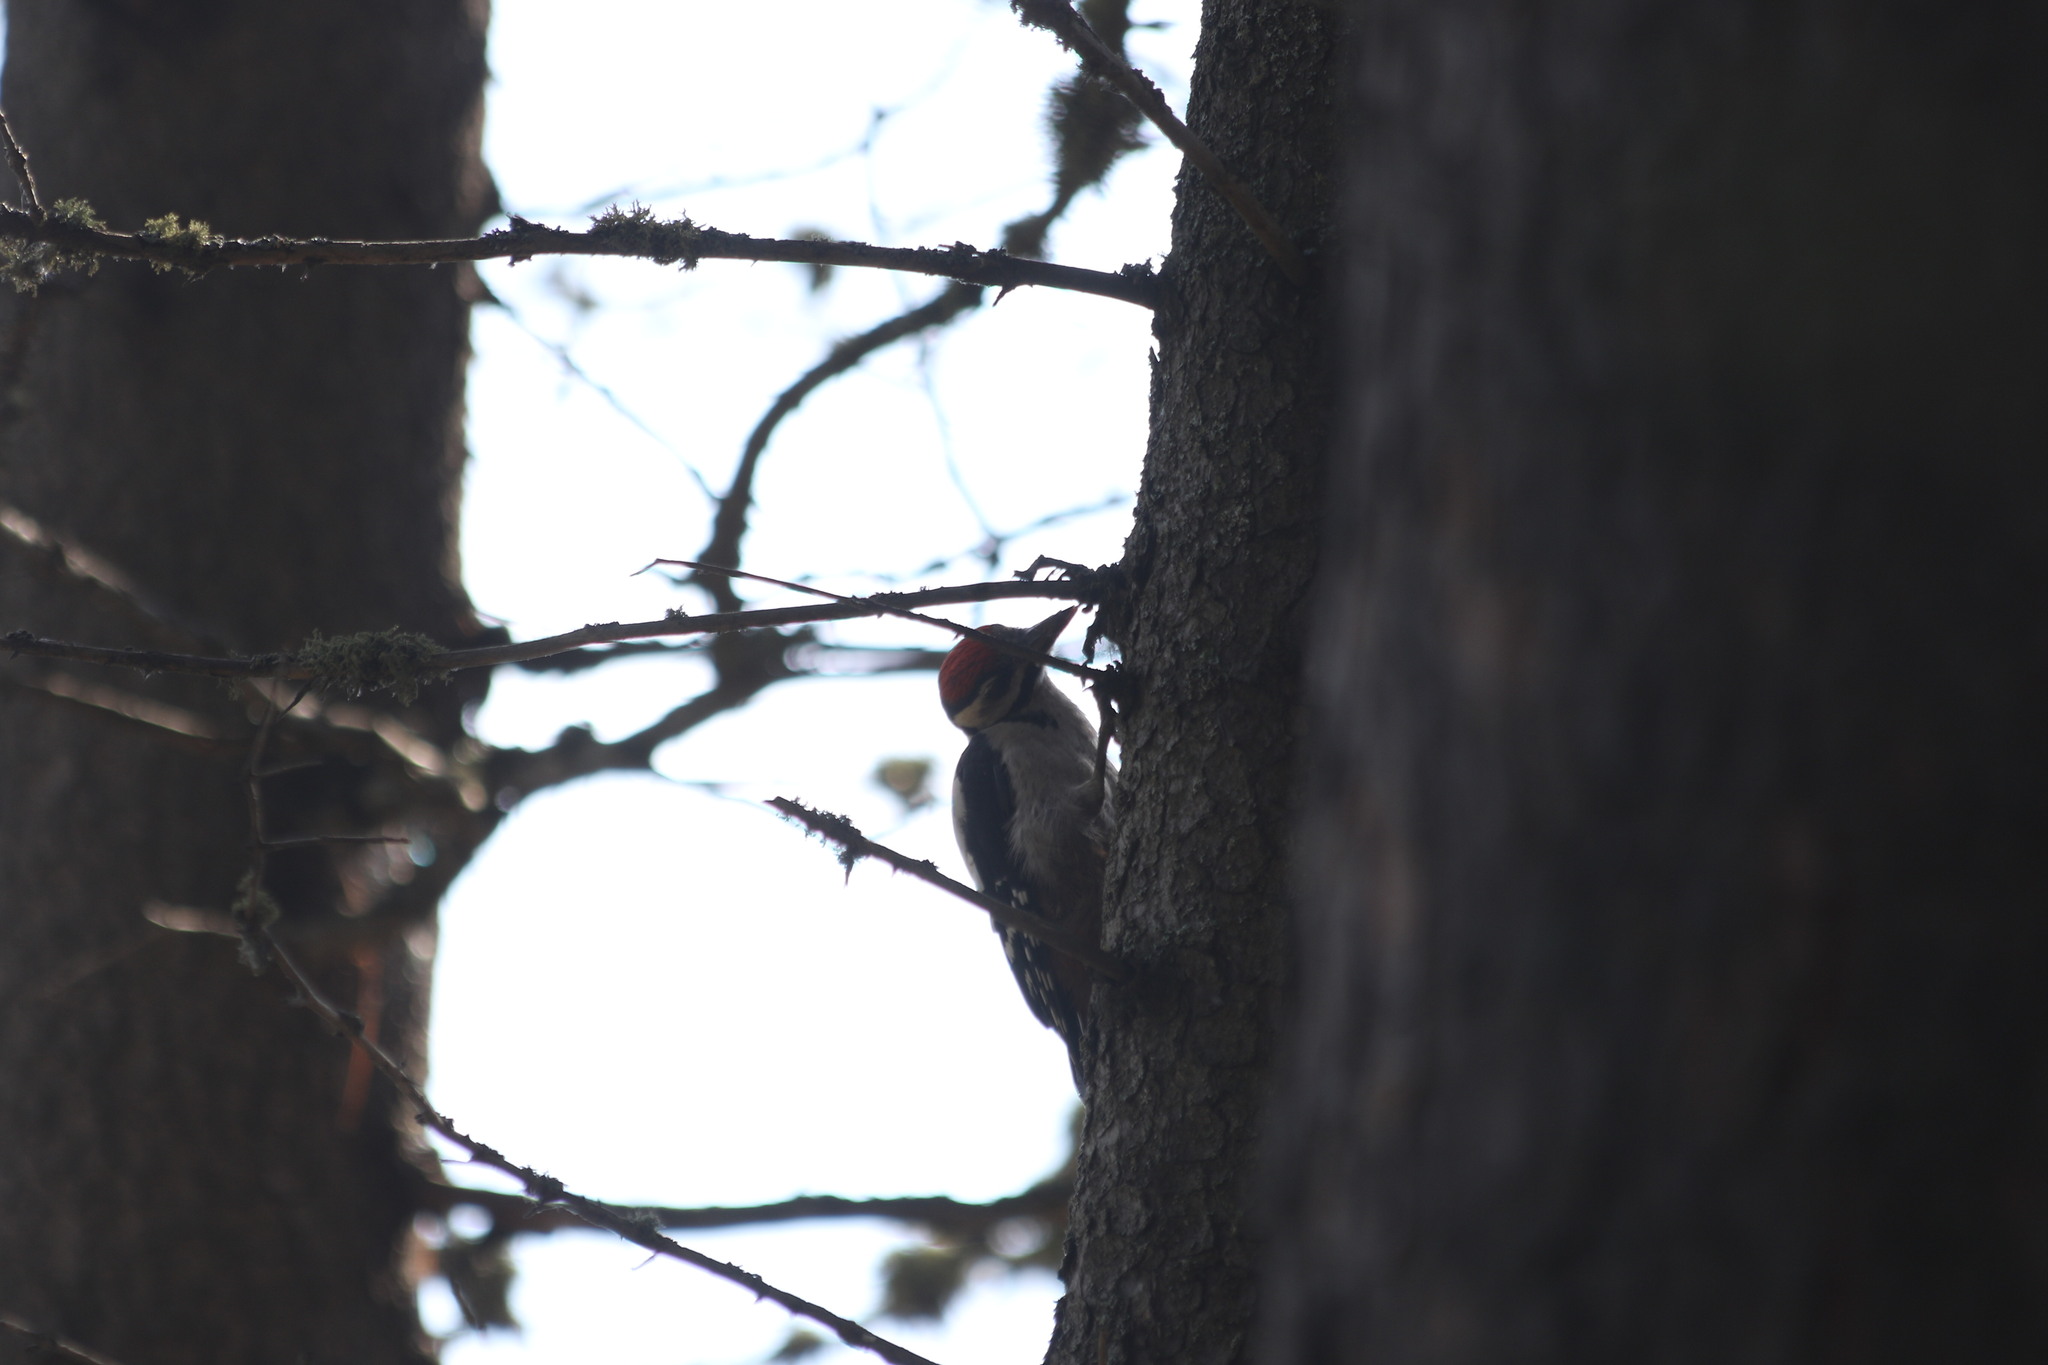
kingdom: Animalia
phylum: Chordata
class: Aves
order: Piciformes
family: Picidae
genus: Dendrocopos
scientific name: Dendrocopos major
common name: Great spotted woodpecker
